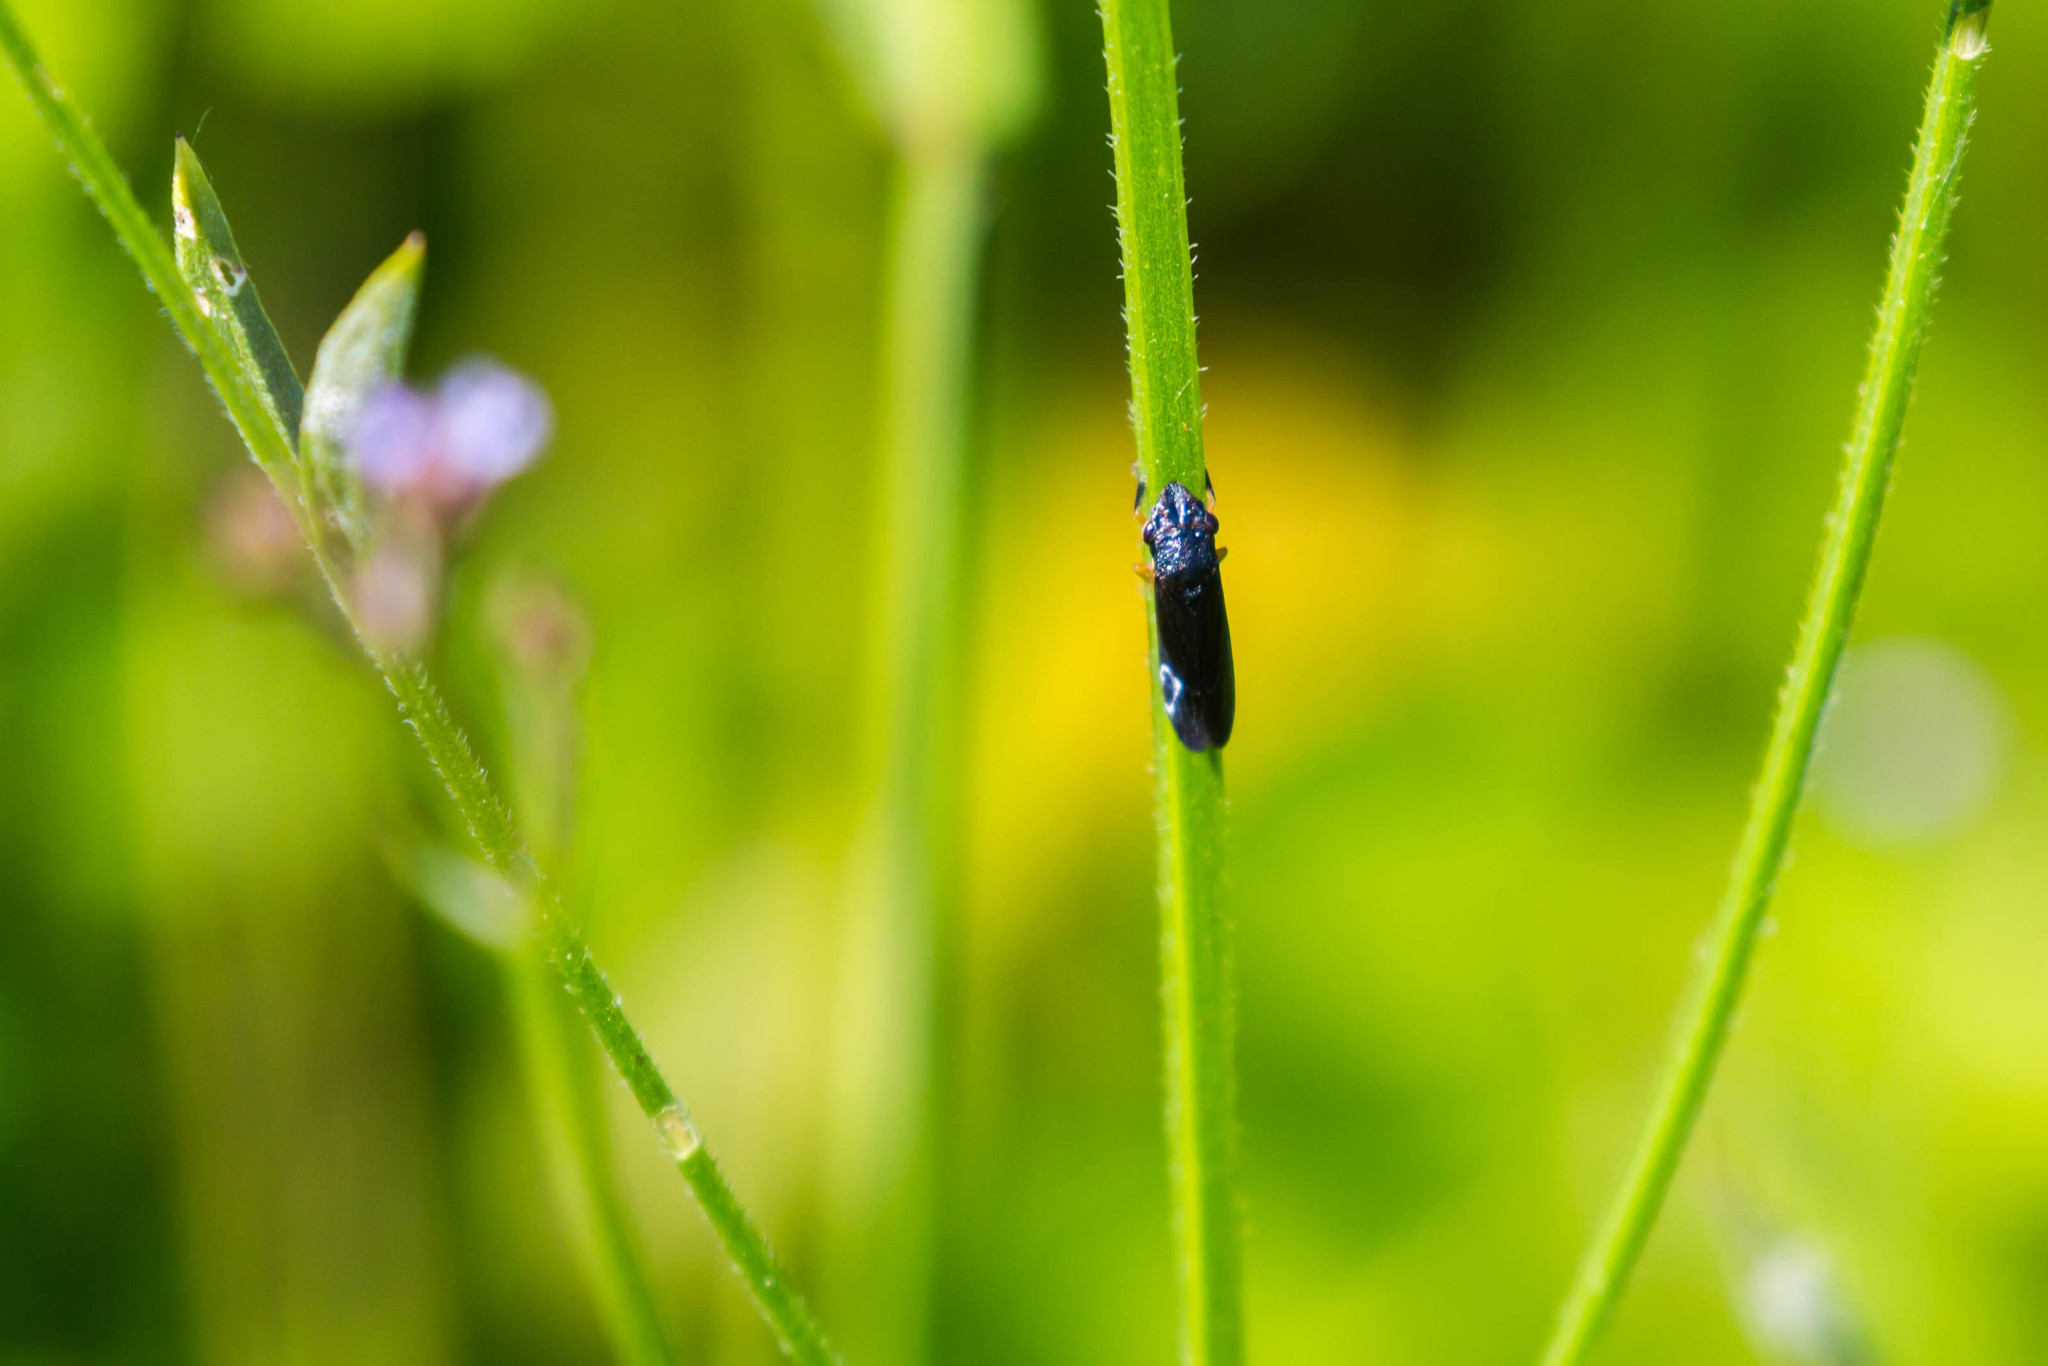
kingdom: Animalia
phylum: Arthropoda
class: Insecta
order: Hemiptera
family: Cicadellidae
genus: Homalodisca
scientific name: Homalodisca insolita
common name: Johnson grass sharpshooter
